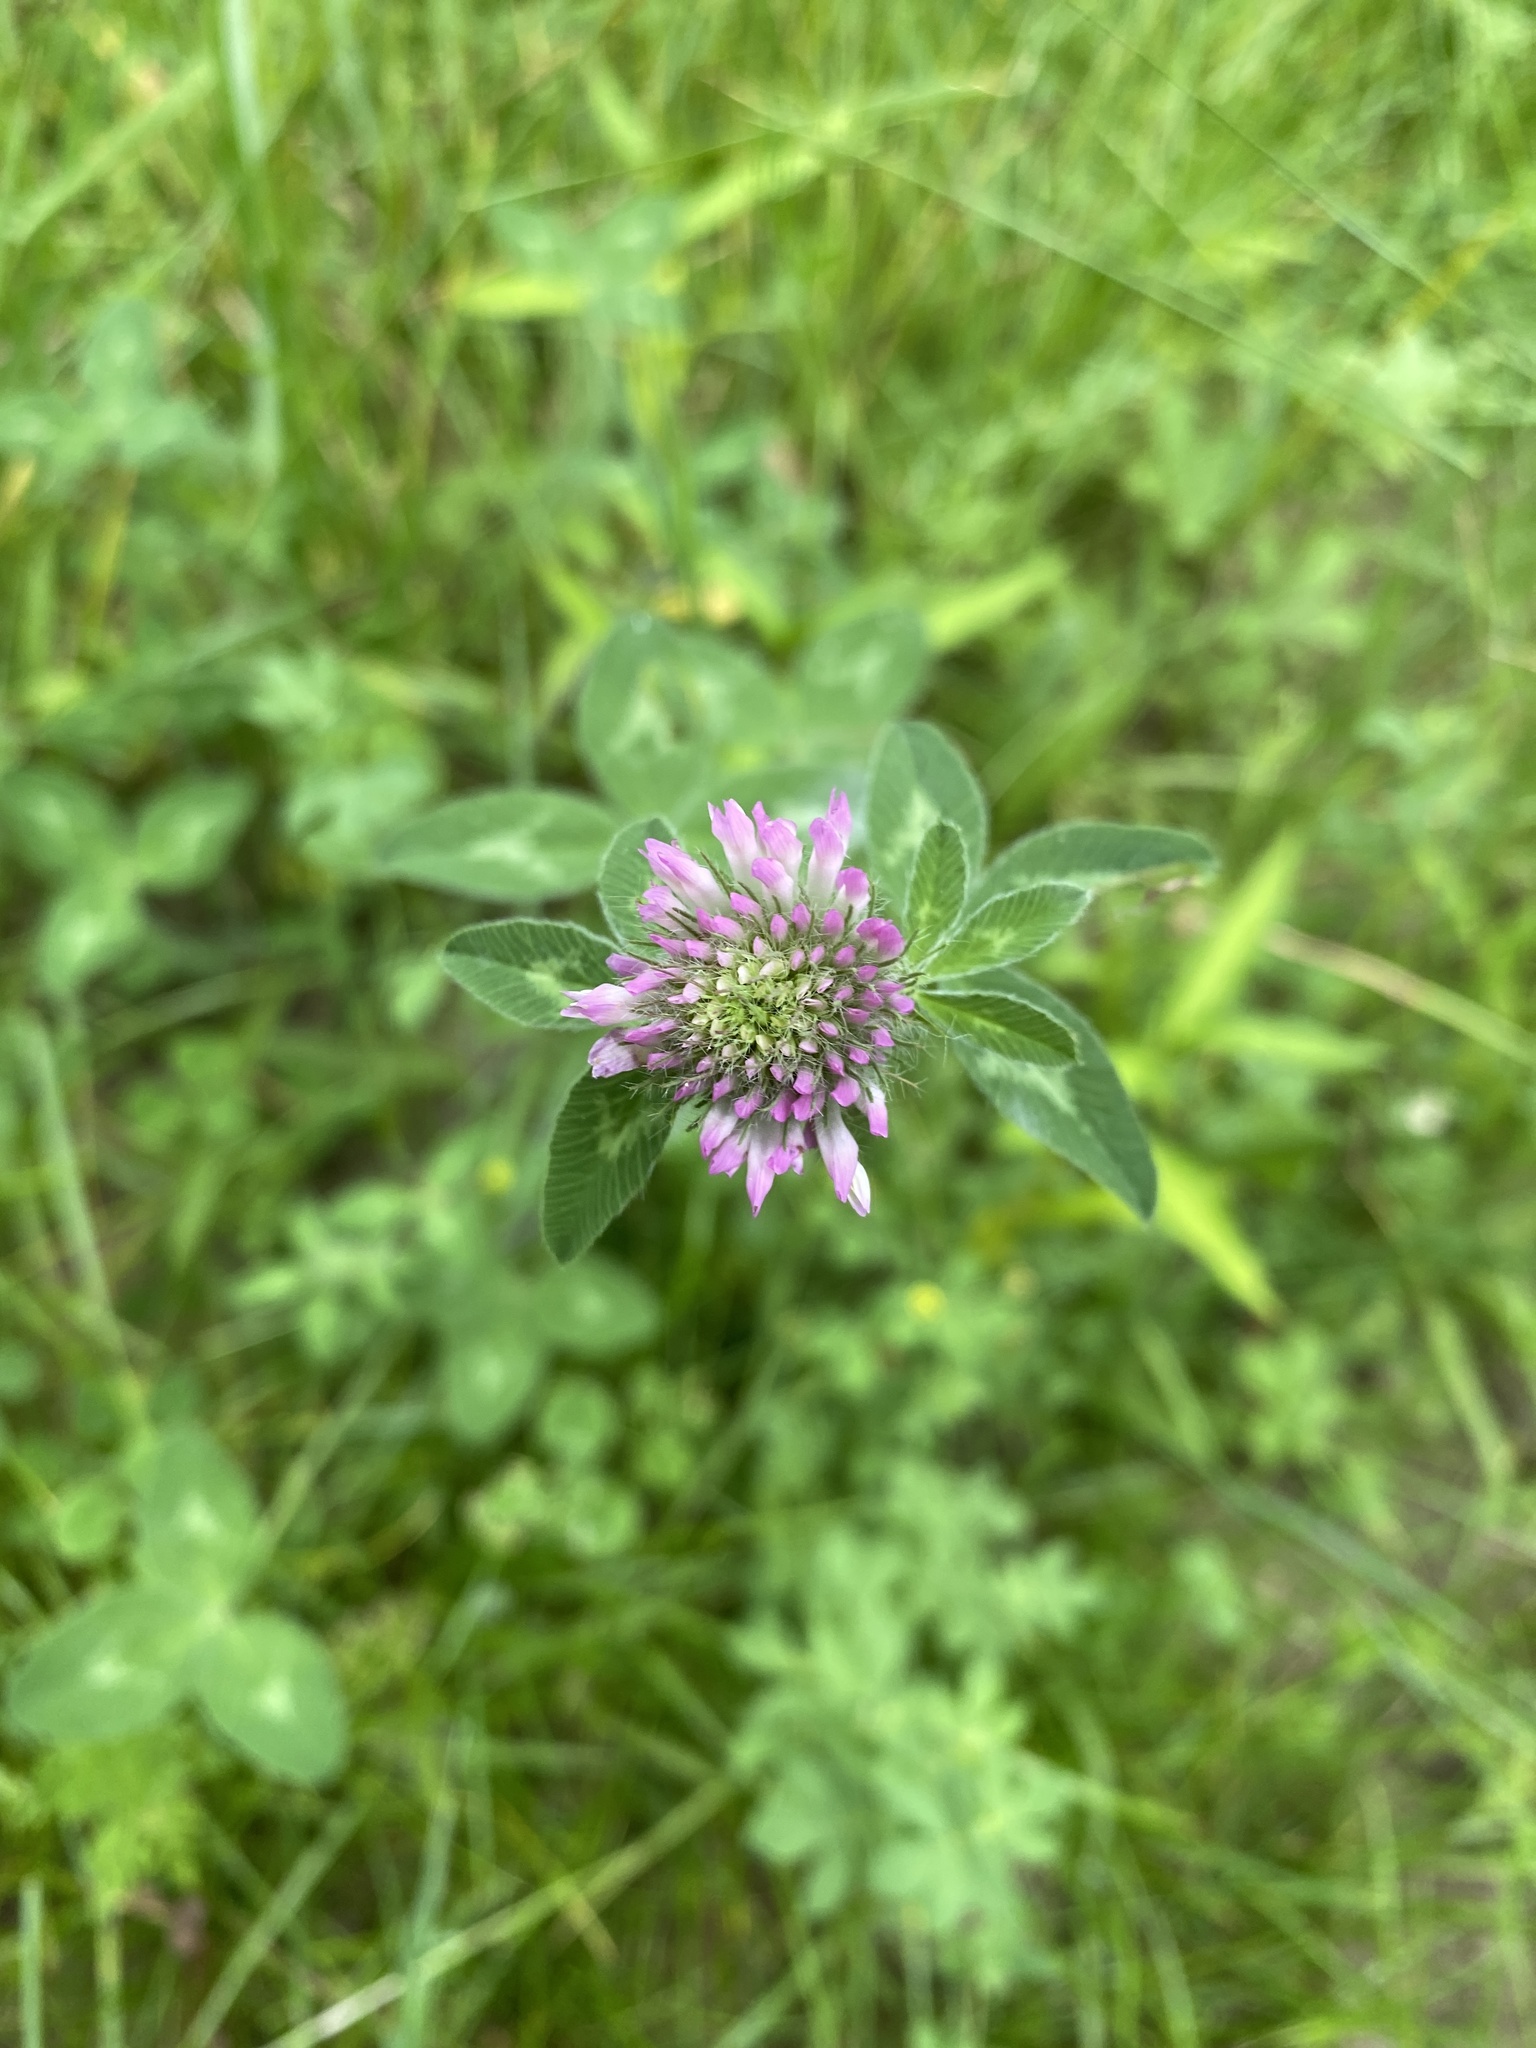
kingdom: Plantae
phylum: Tracheophyta
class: Magnoliopsida
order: Fabales
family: Fabaceae
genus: Trifolium
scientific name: Trifolium pratense
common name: Red clover
